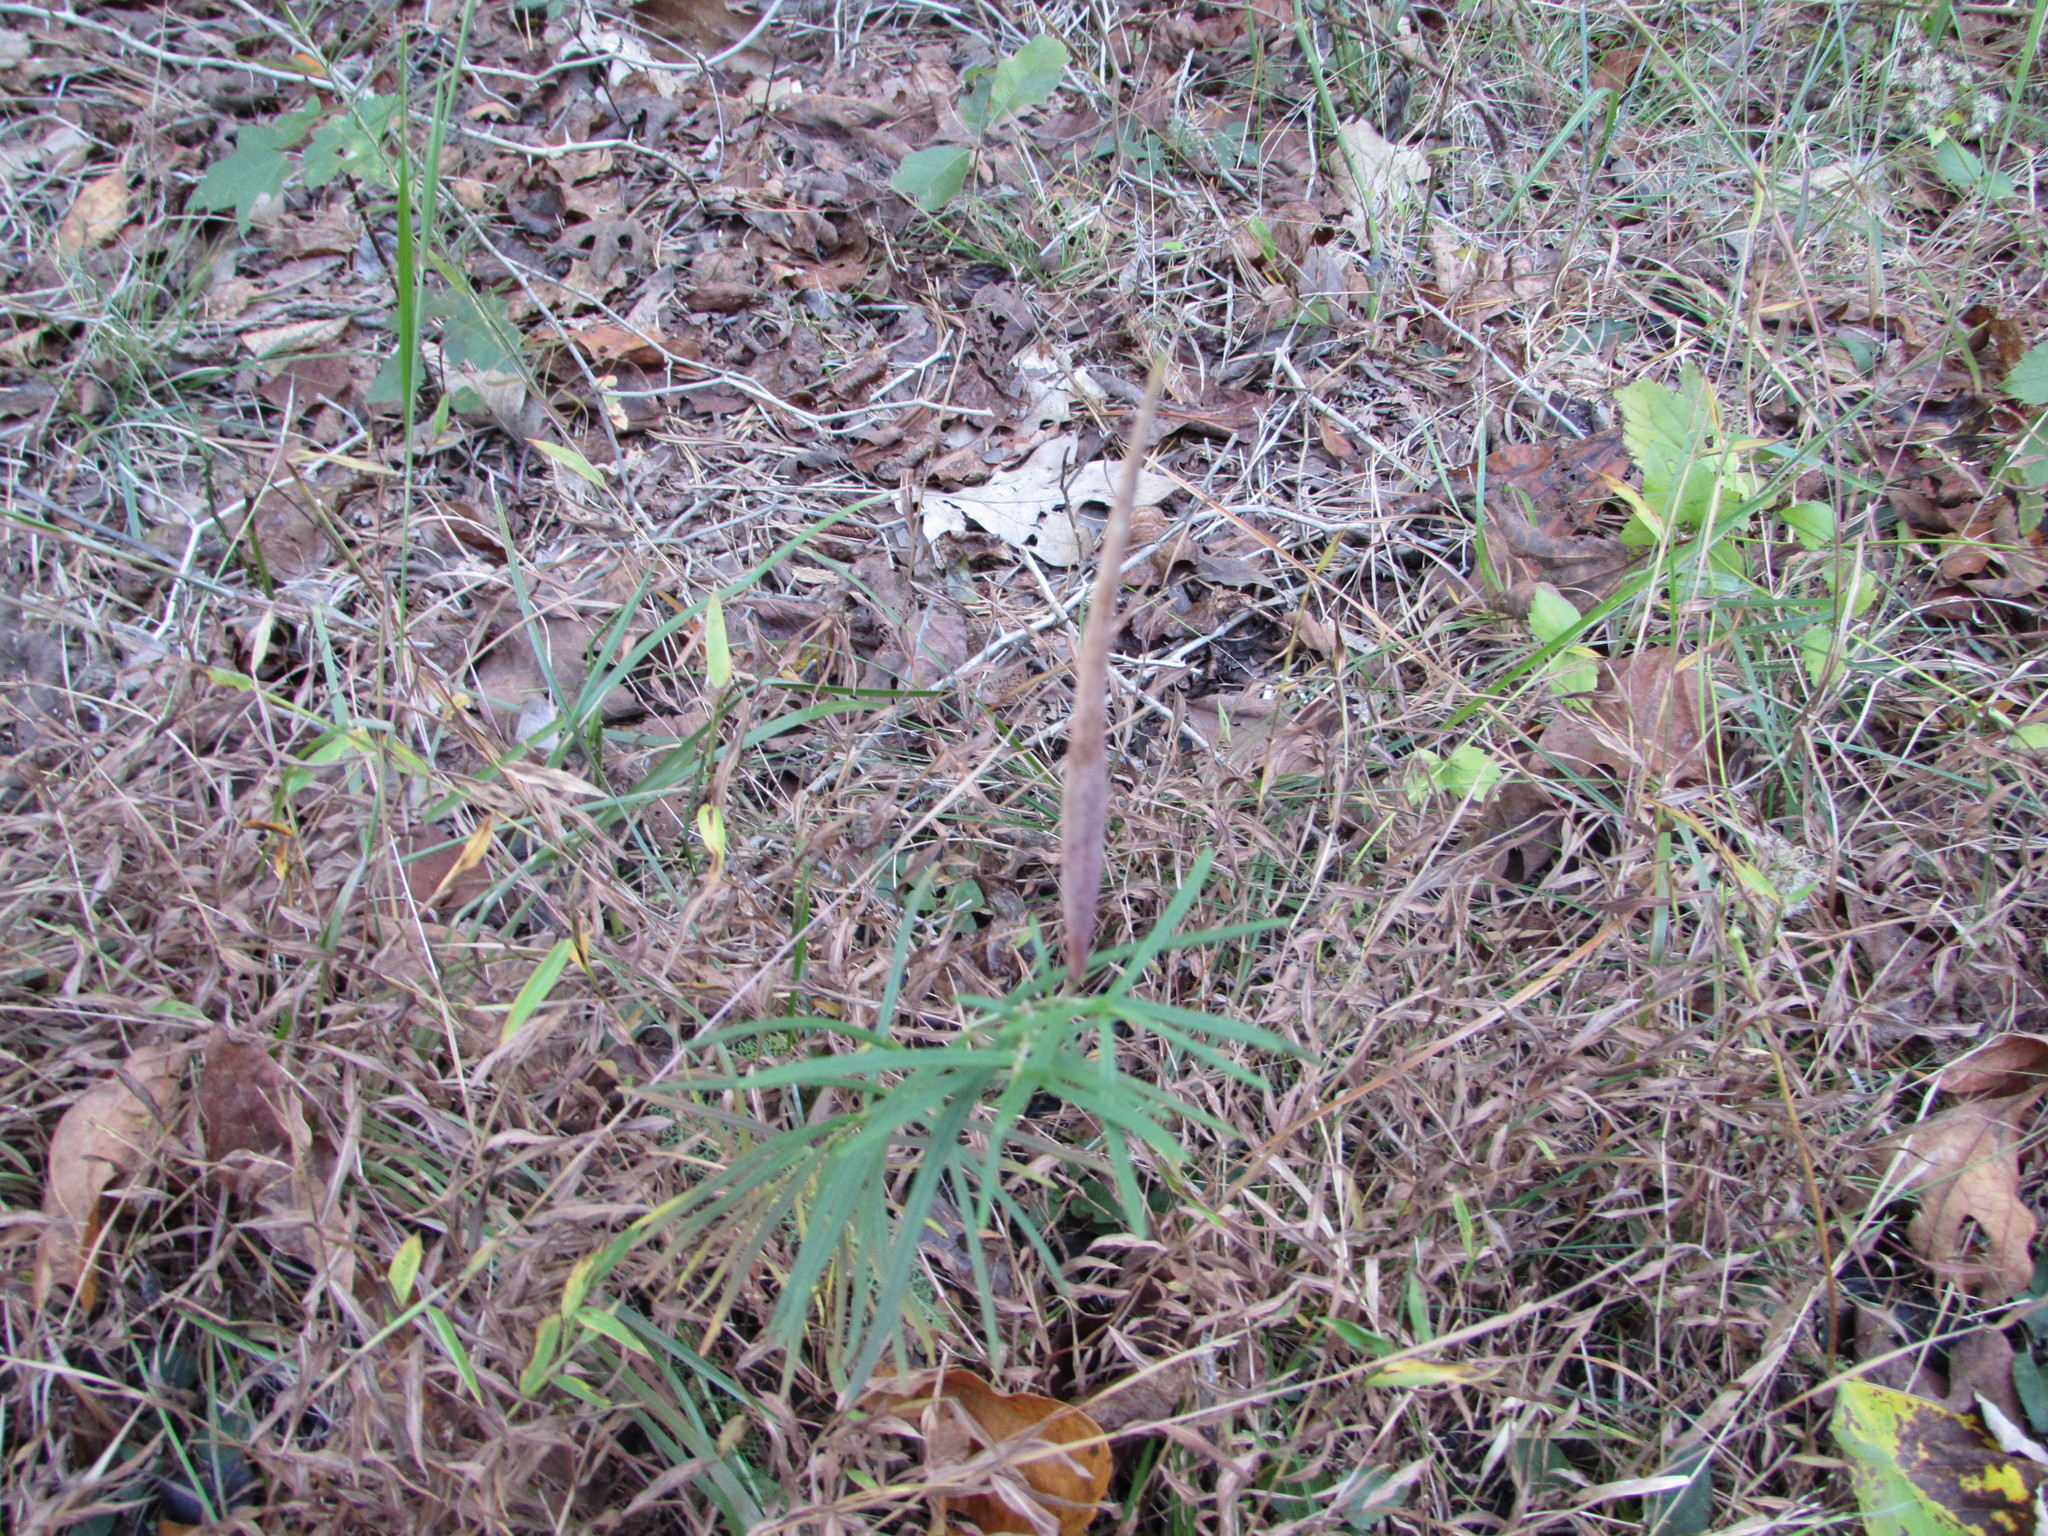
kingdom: Plantae
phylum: Tracheophyta
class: Magnoliopsida
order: Gentianales
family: Apocynaceae
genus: Asclepias
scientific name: Asclepias verticillata
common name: Eastern whorled milkweed
